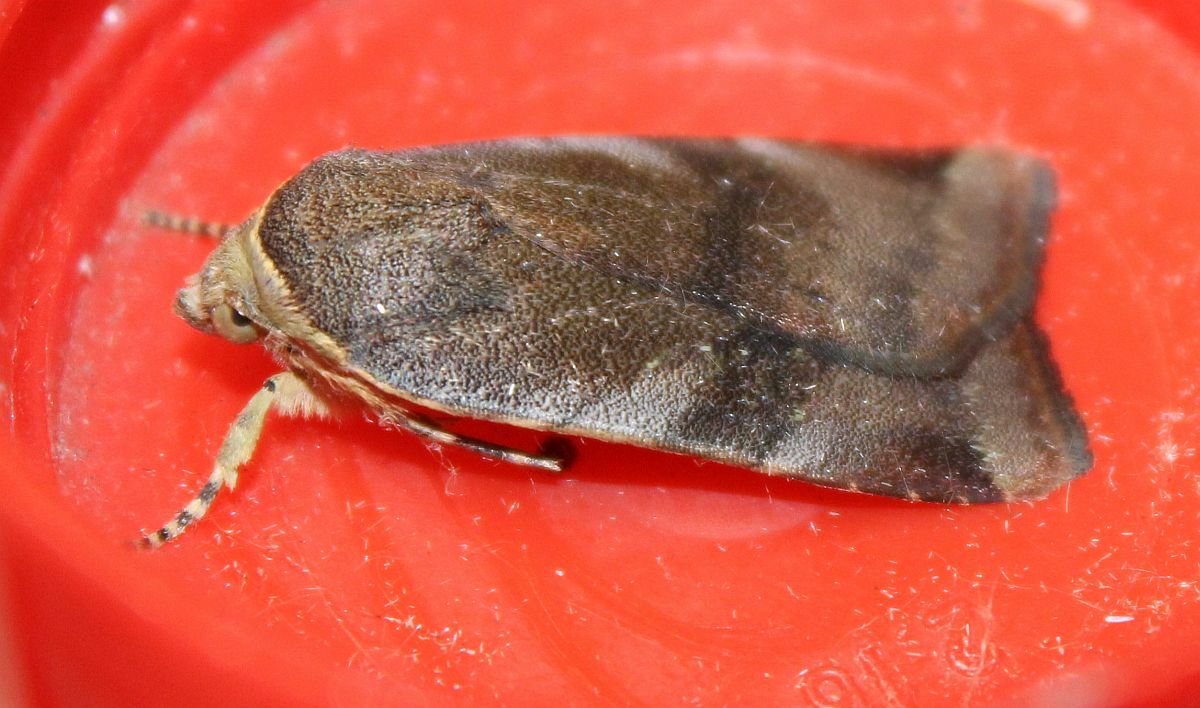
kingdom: Animalia
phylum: Arthropoda
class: Insecta
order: Lepidoptera
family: Noctuidae
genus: Noctua
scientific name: Noctua janthe
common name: Lesser broad-bordered yellow underwing
